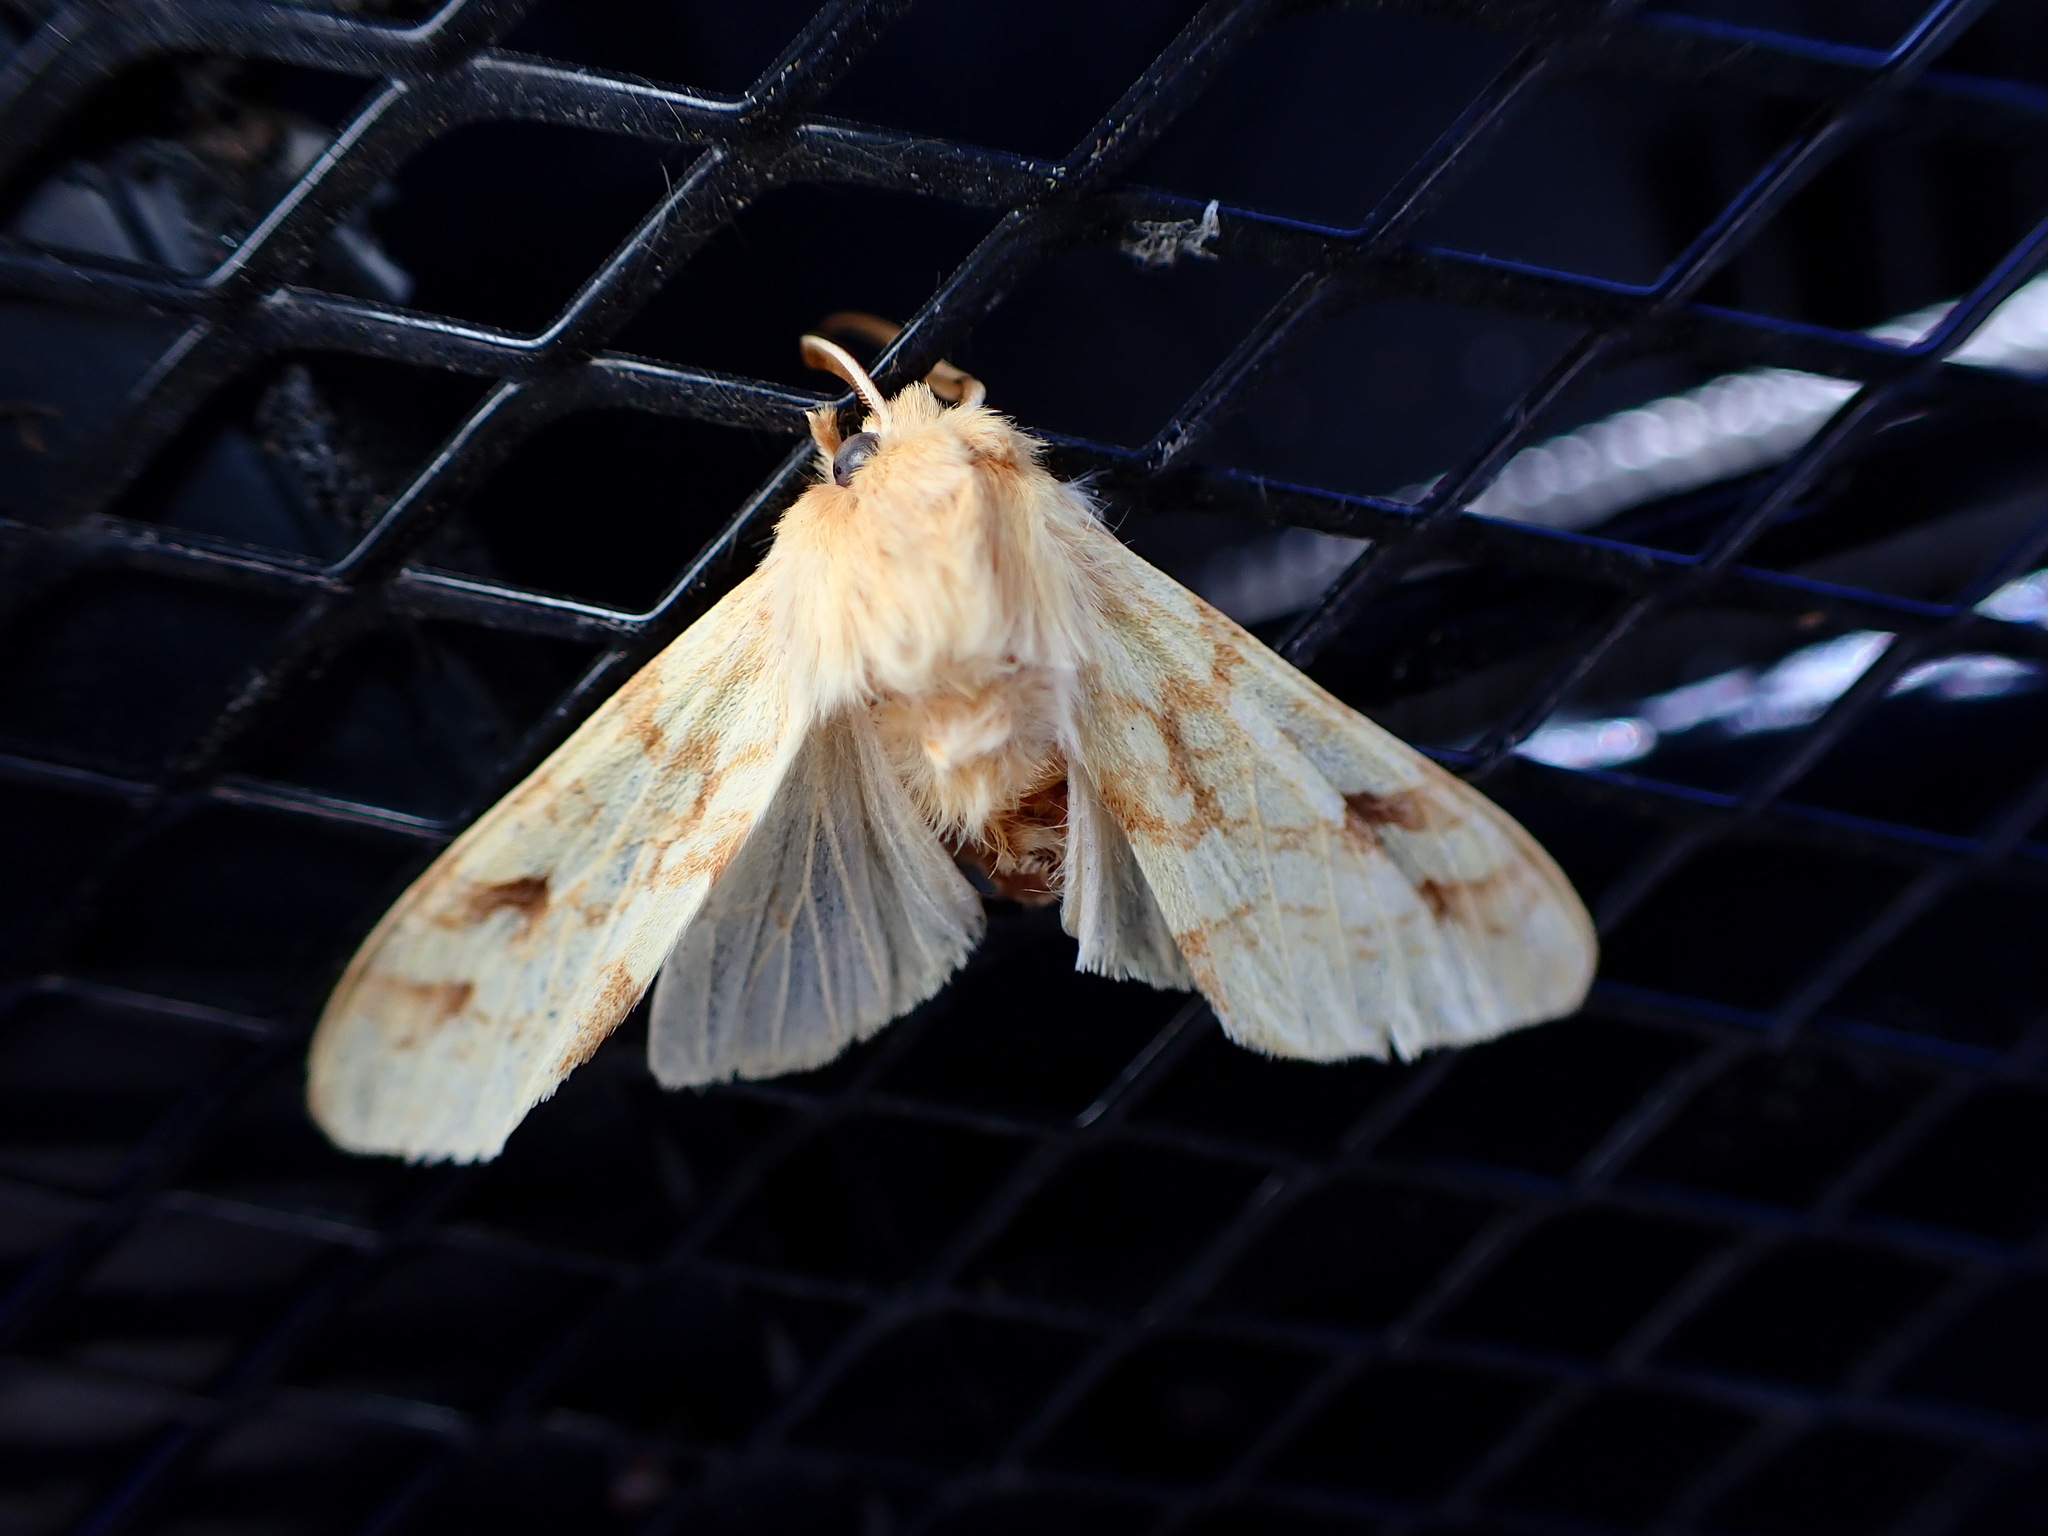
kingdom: Animalia
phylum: Arthropoda
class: Insecta
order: Lepidoptera
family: Erebidae
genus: Lophocampa
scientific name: Lophocampa maculata
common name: Spotted tussock moth
